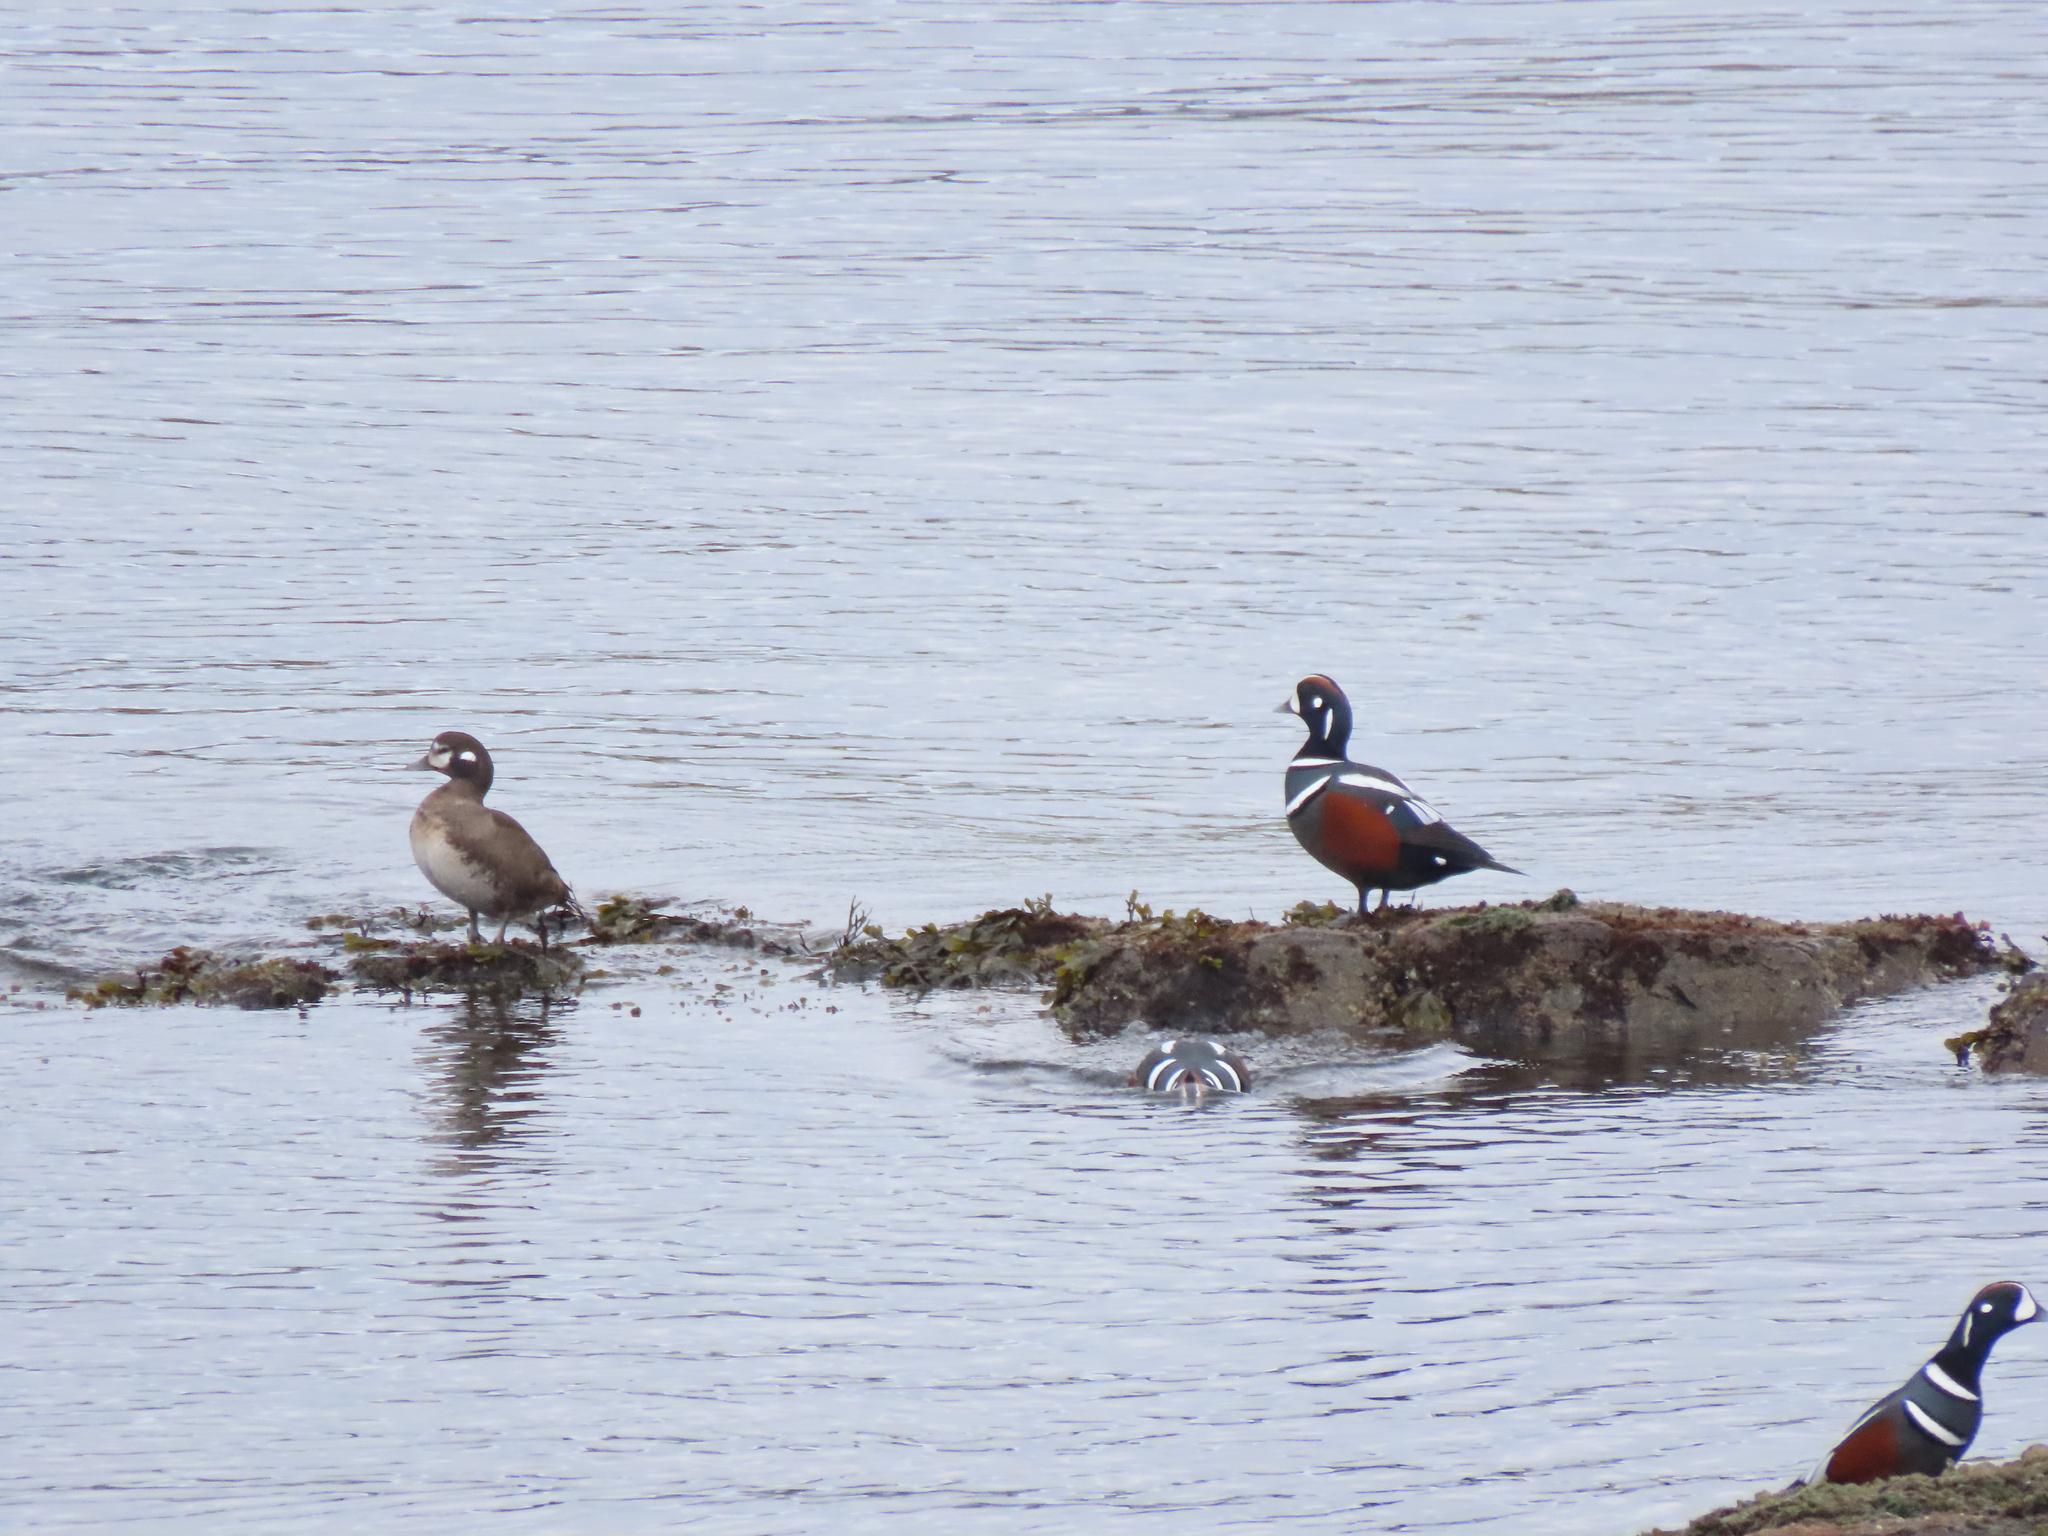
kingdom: Animalia
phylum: Chordata
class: Aves
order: Anseriformes
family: Anatidae
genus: Histrionicus
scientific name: Histrionicus histrionicus
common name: Harlequin duck
